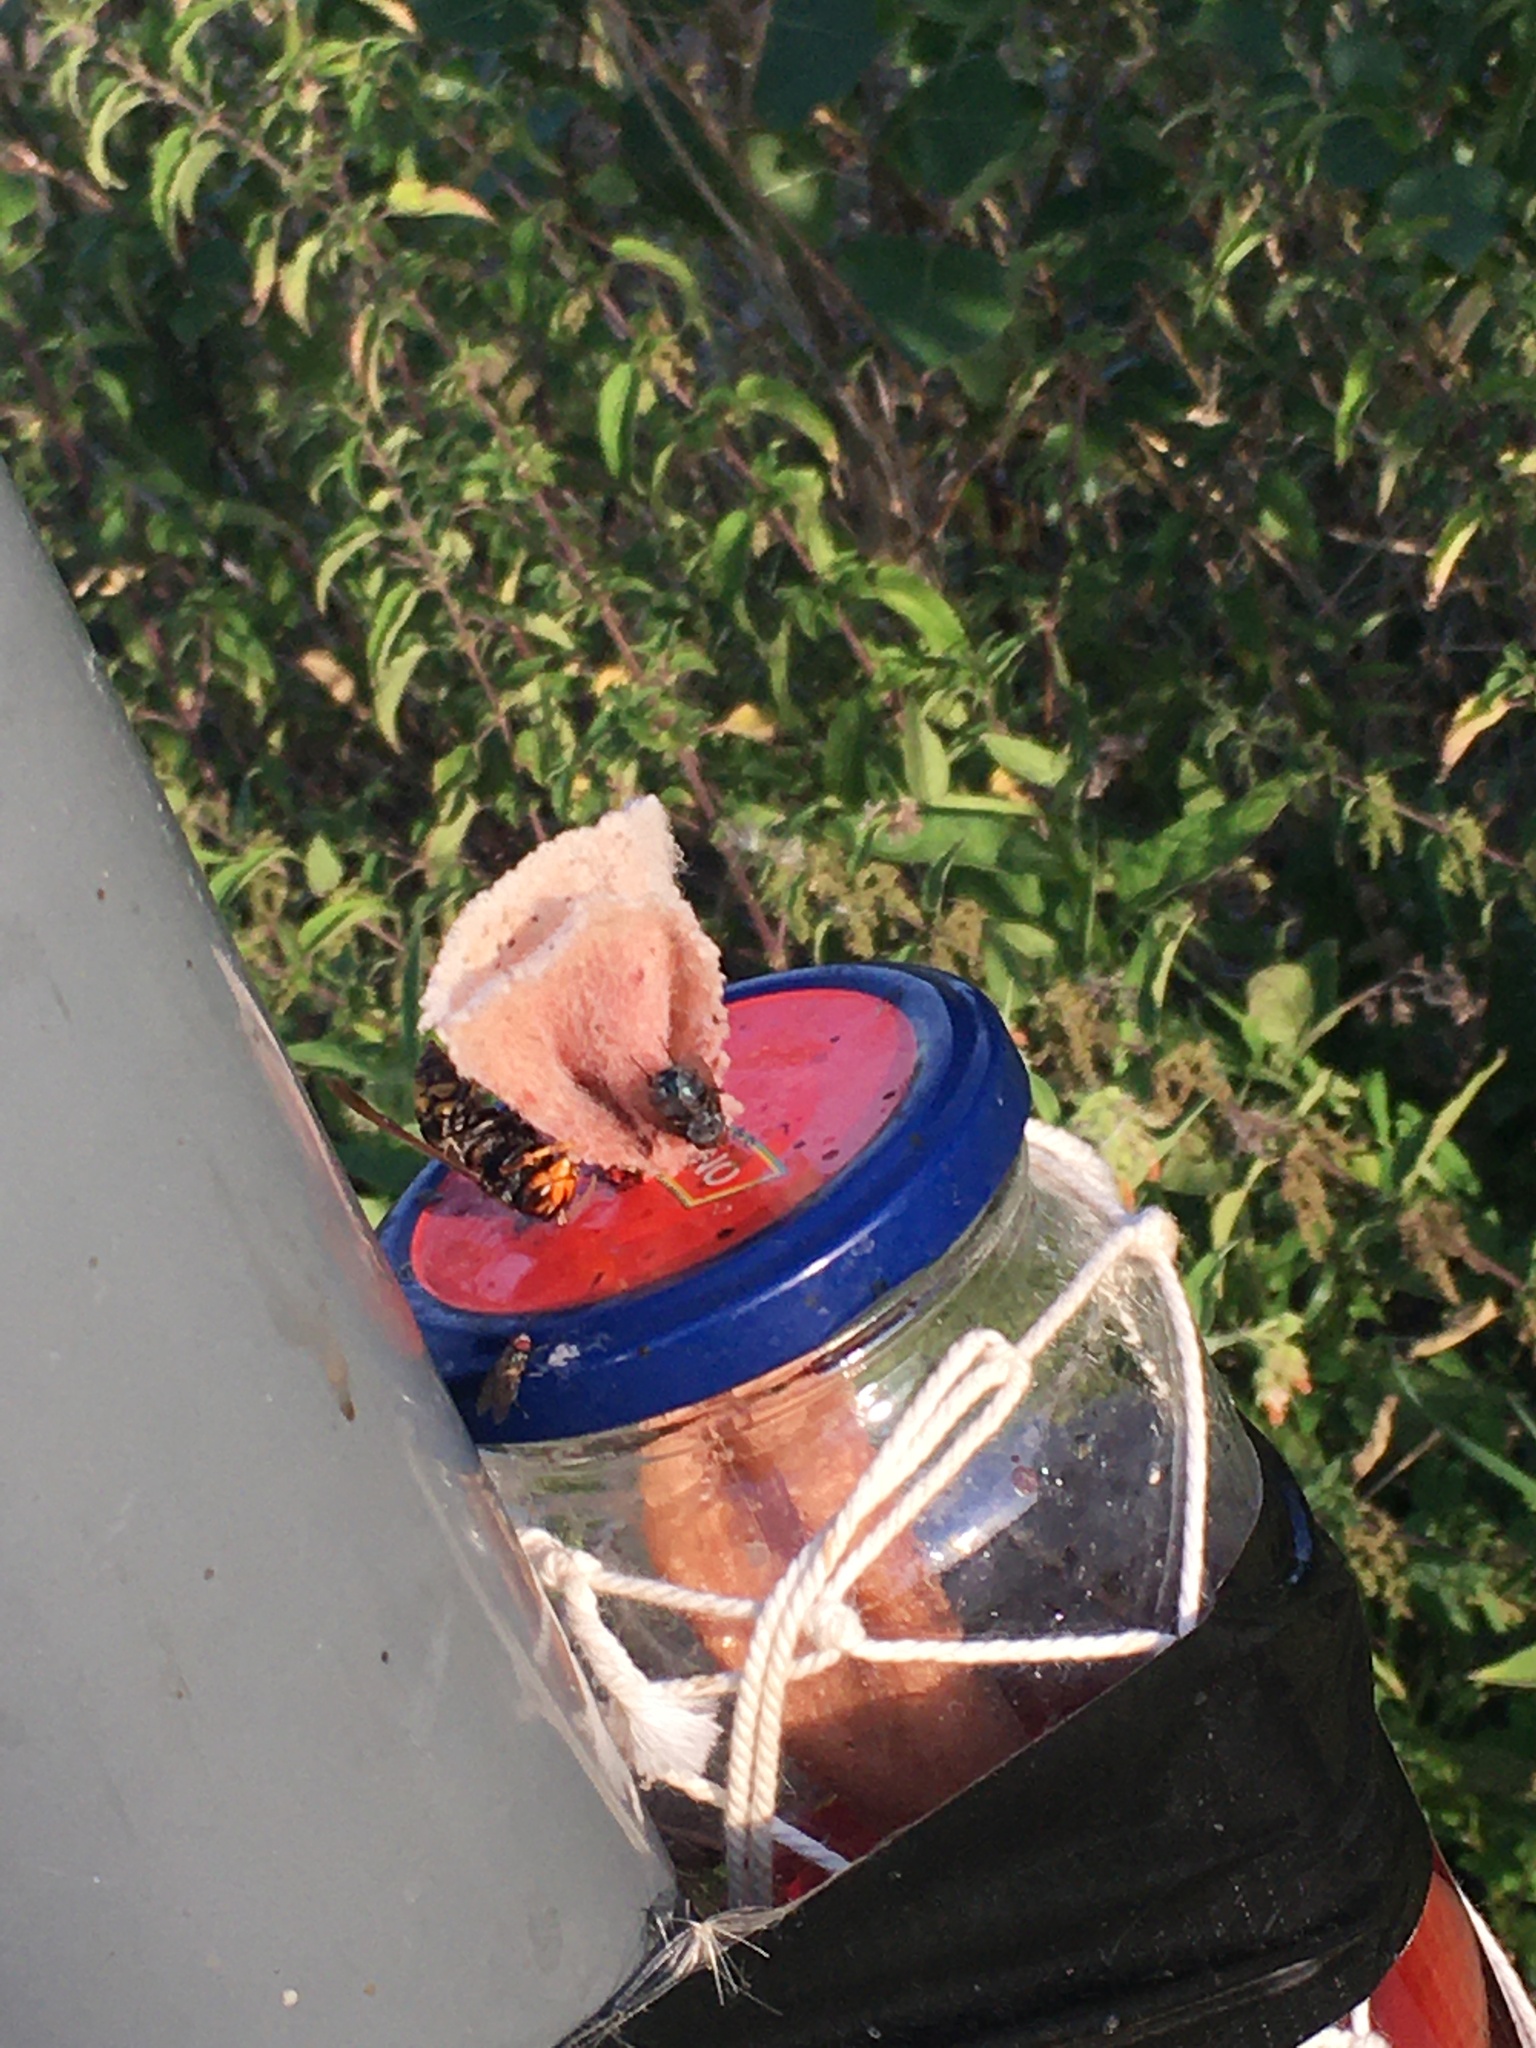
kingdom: Animalia
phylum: Arthropoda
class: Insecta
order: Hymenoptera
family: Vespidae
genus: Vespa
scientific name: Vespa velutina
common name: Asian hornet
